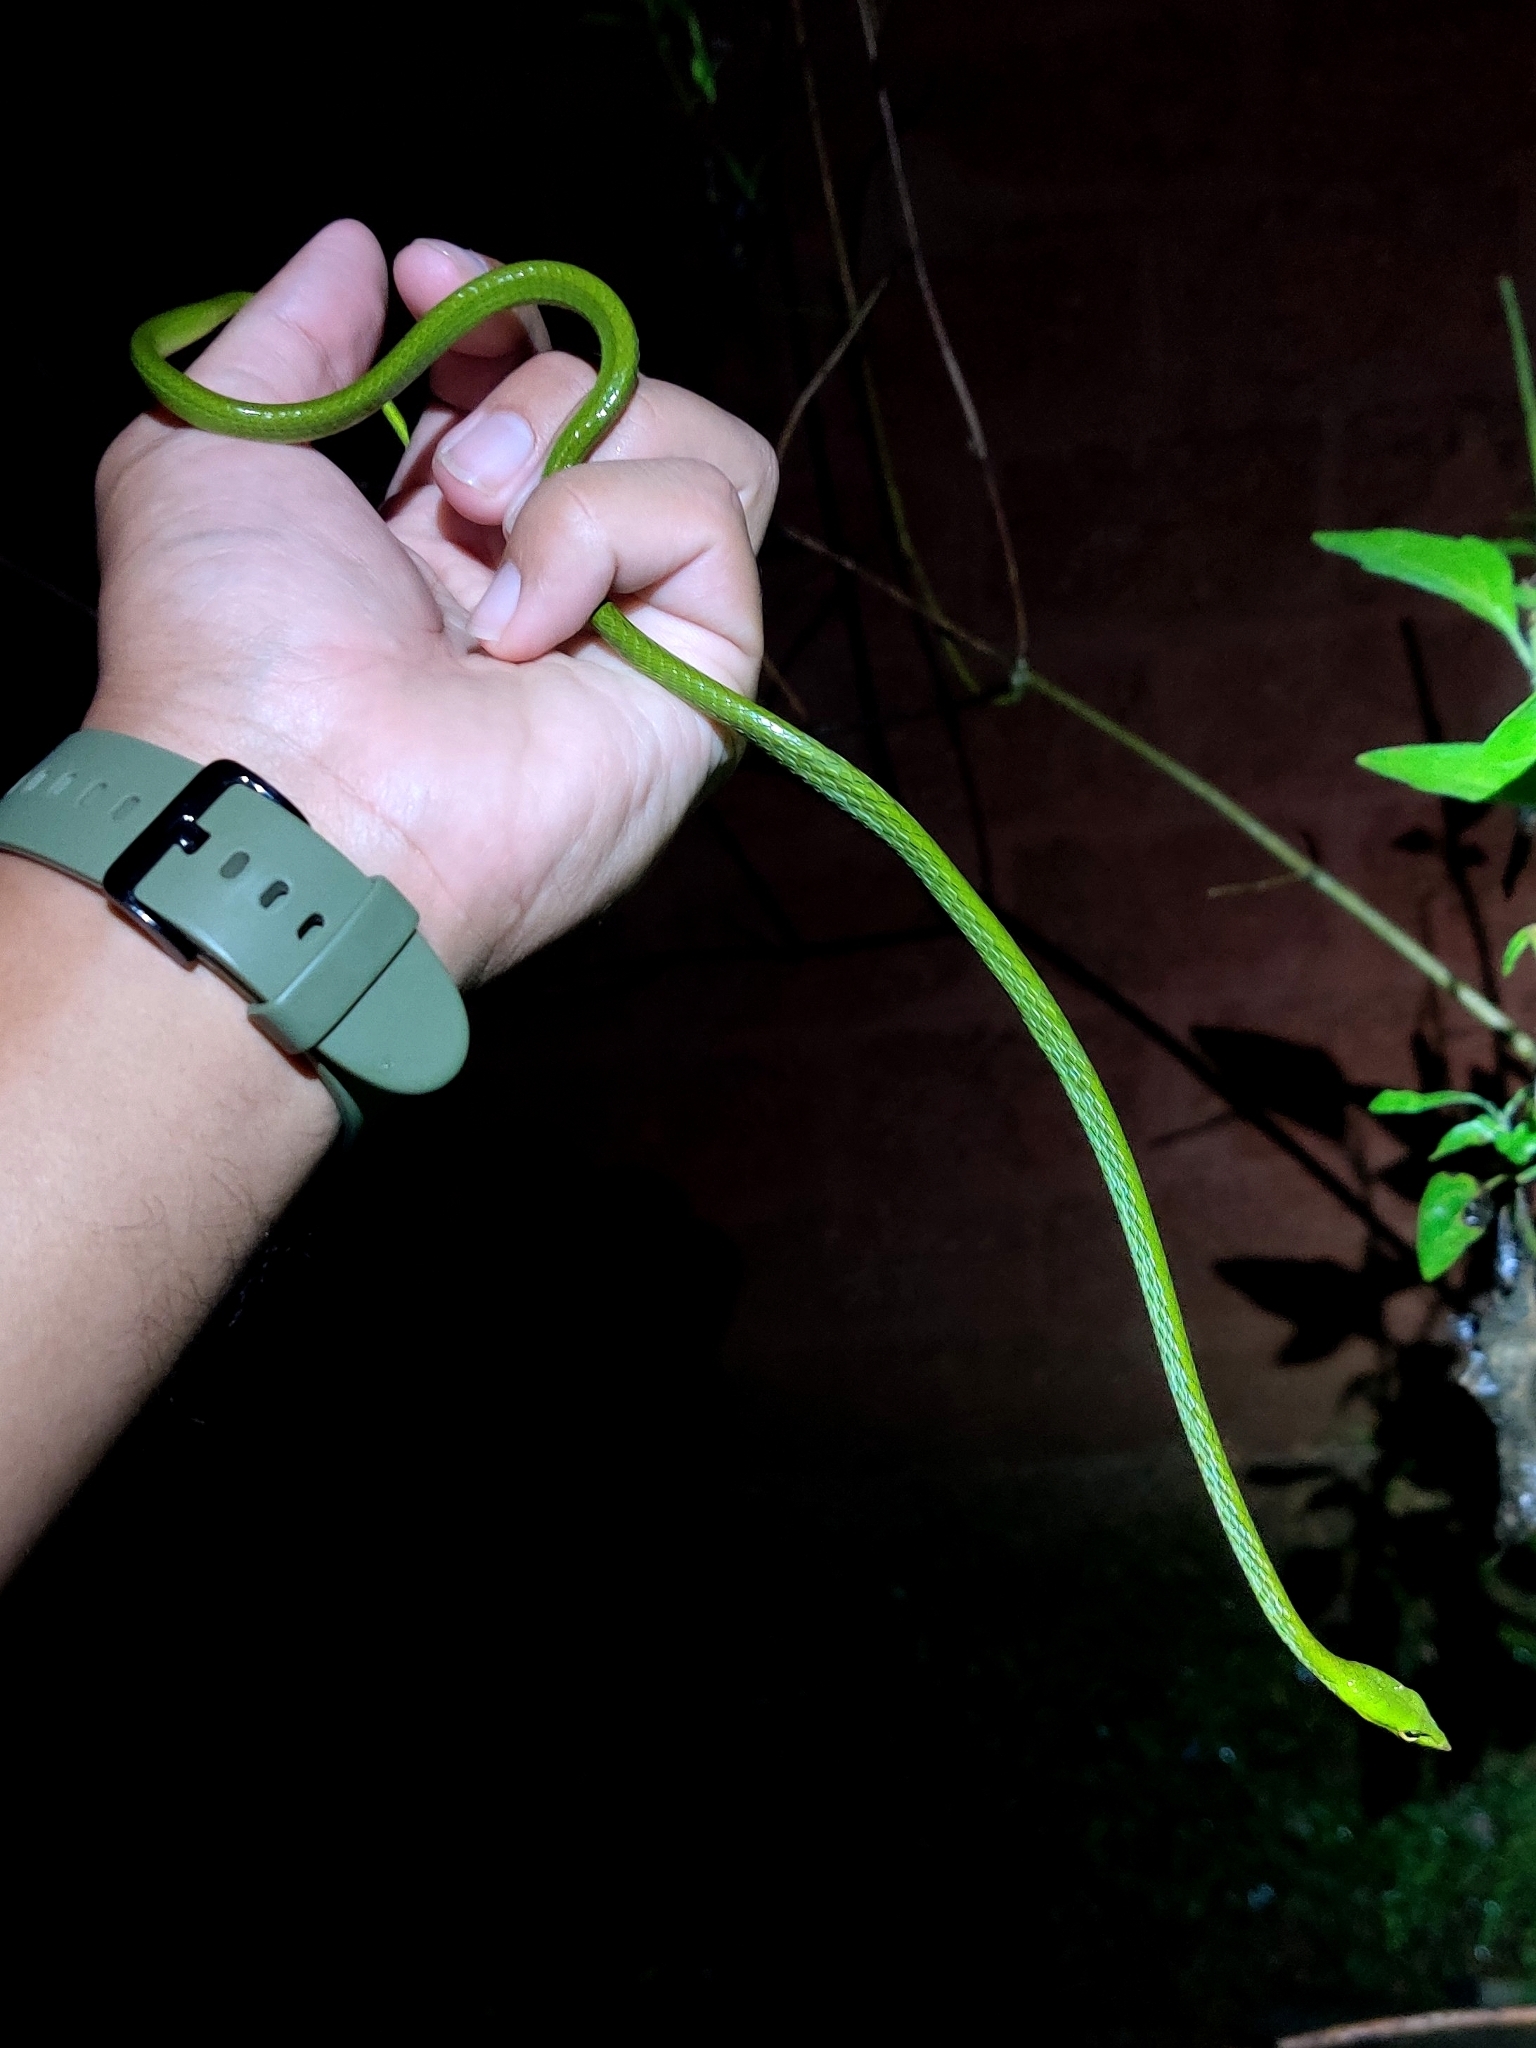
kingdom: Animalia
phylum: Chordata
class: Squamata
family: Colubridae
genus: Ahaetulla
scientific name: Ahaetulla borealis
